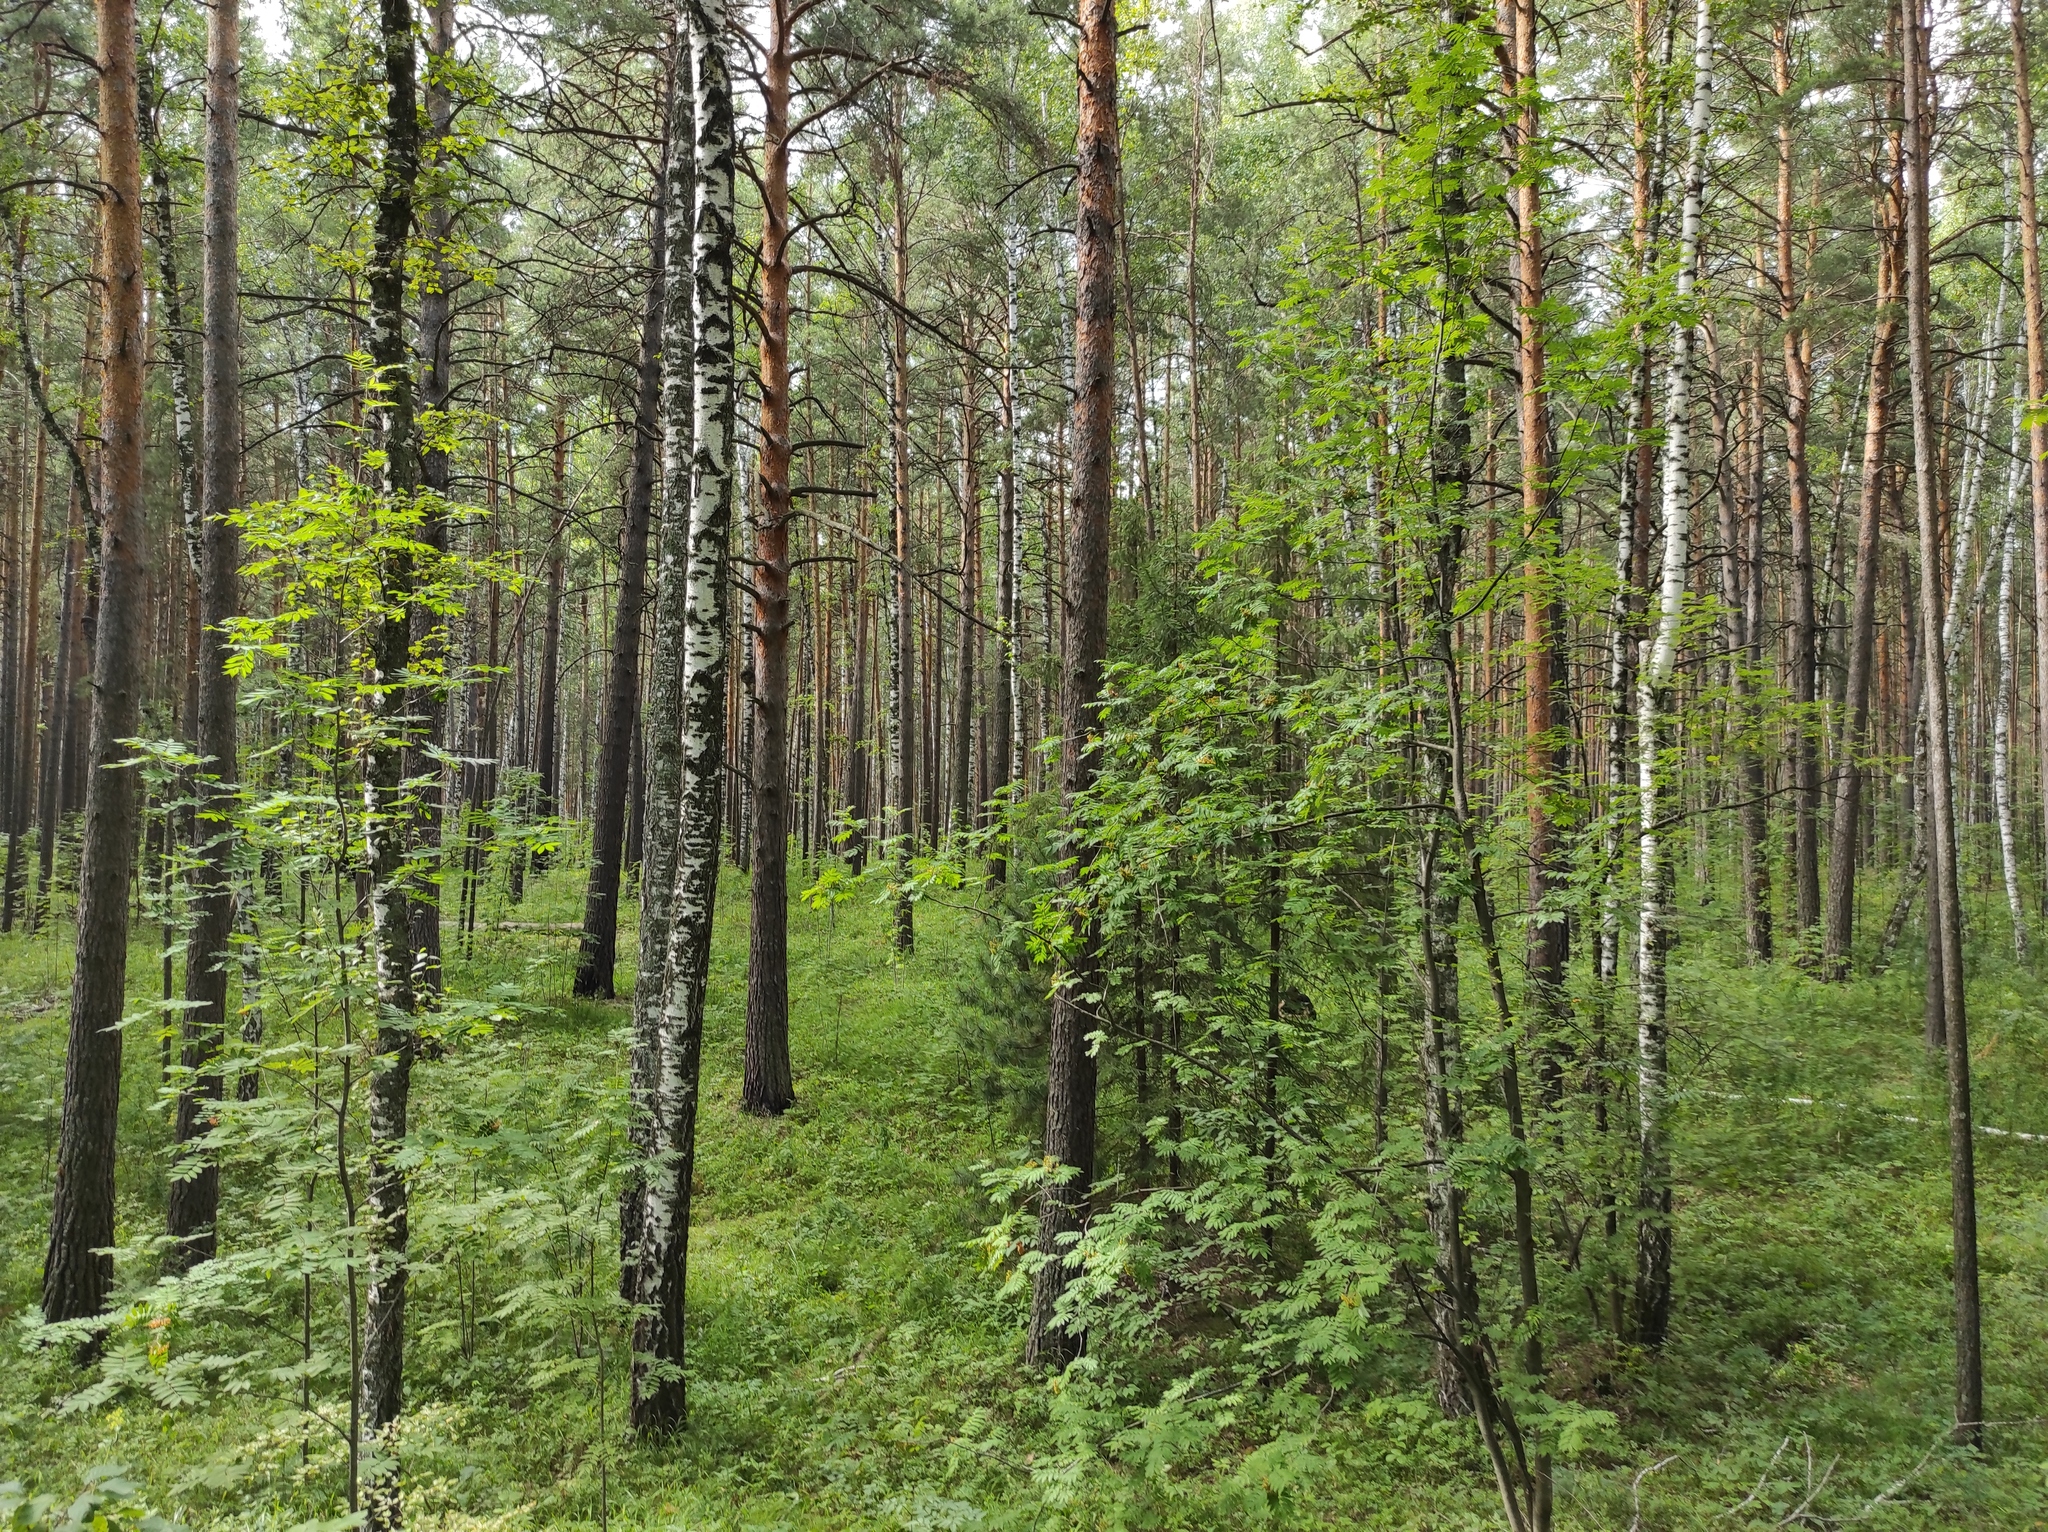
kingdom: Plantae
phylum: Tracheophyta
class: Magnoliopsida
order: Fagales
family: Betulaceae
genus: Betula
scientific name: Betula pendula
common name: Silver birch
